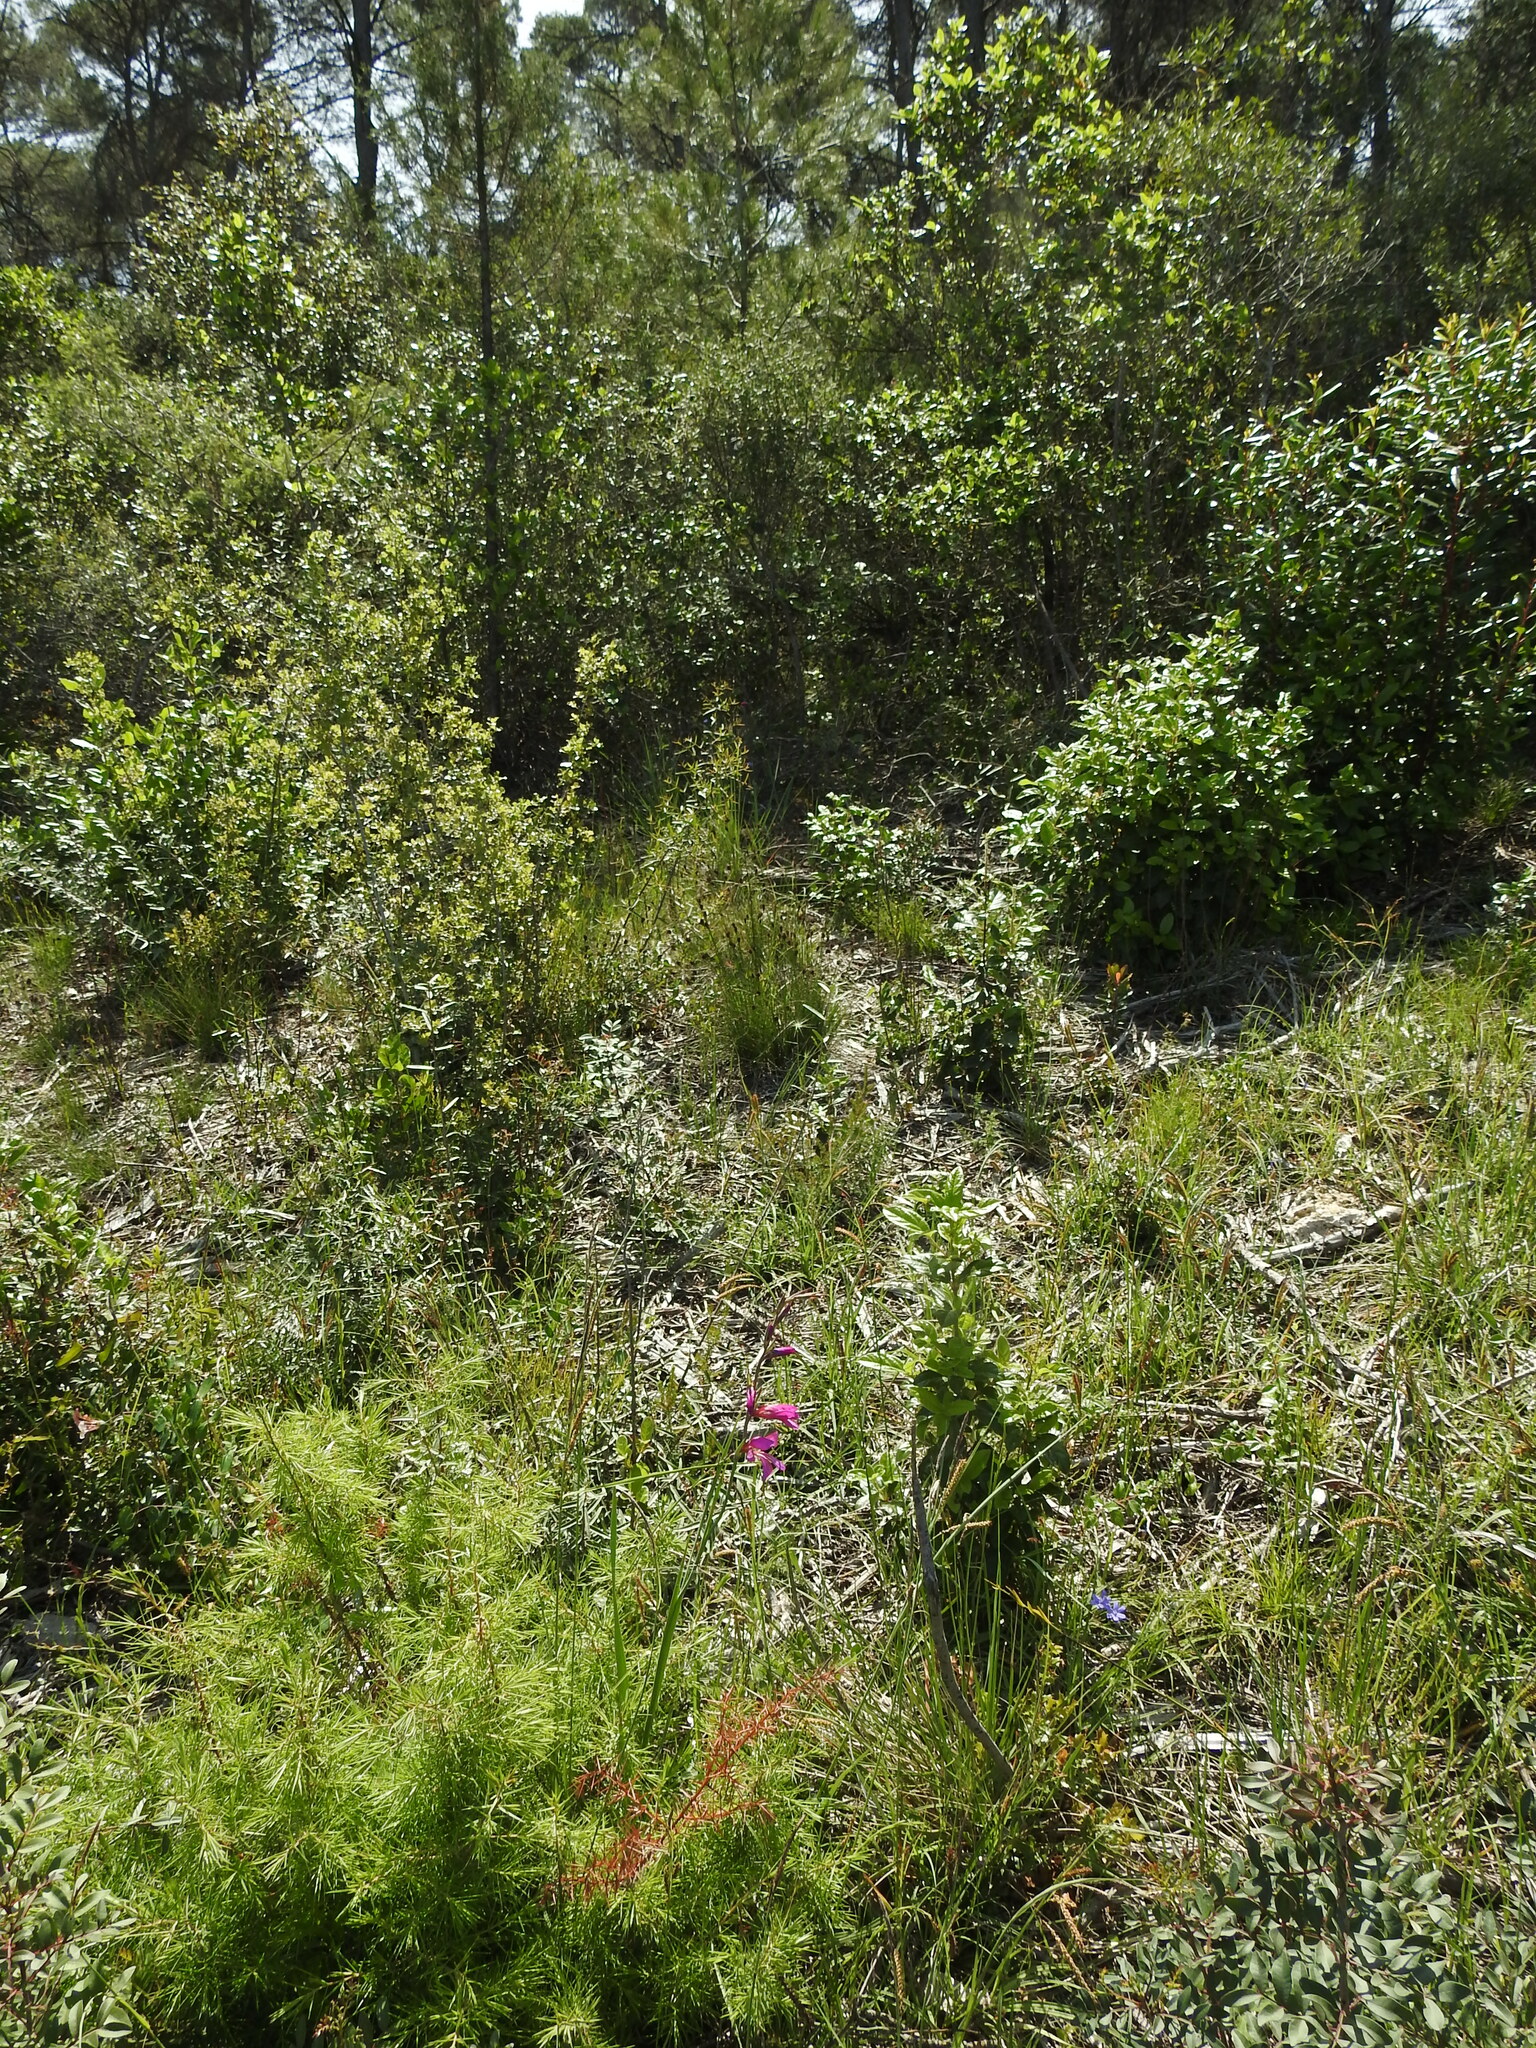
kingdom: Plantae
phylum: Tracheophyta
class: Liliopsida
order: Asparagales
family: Iridaceae
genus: Gladiolus
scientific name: Gladiolus dubius
